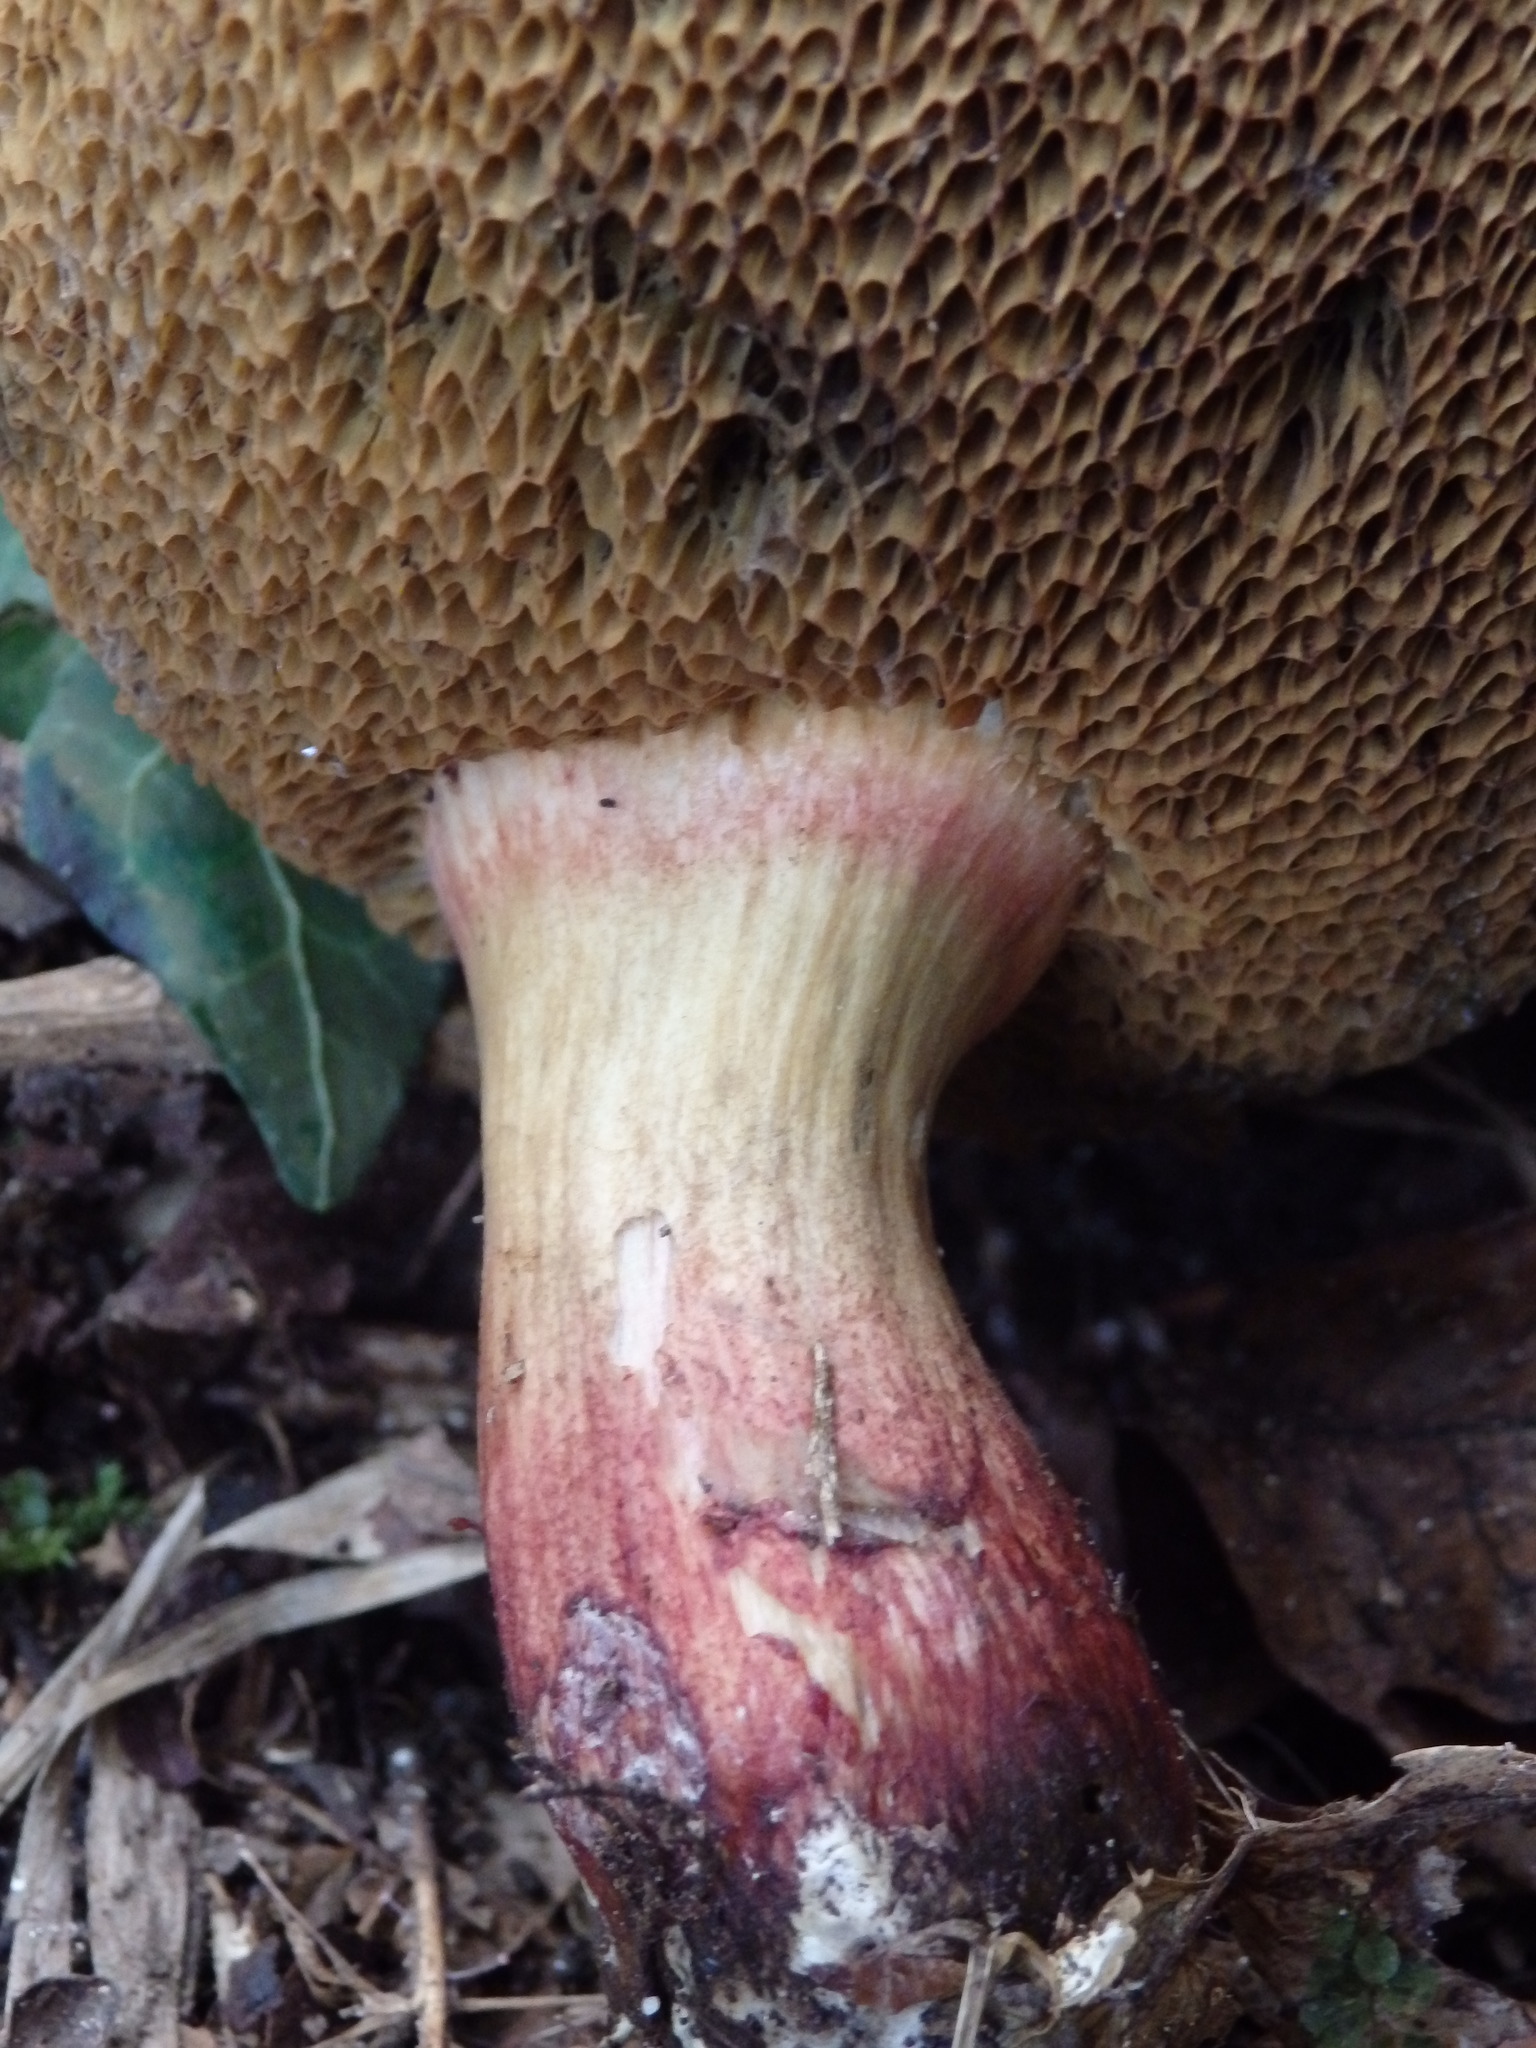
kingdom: Fungi
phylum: Basidiomycota
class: Agaricomycetes
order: Boletales
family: Boletaceae
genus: Xerocomellus
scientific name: Xerocomellus chrysenteron
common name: Red-cracking bolete
